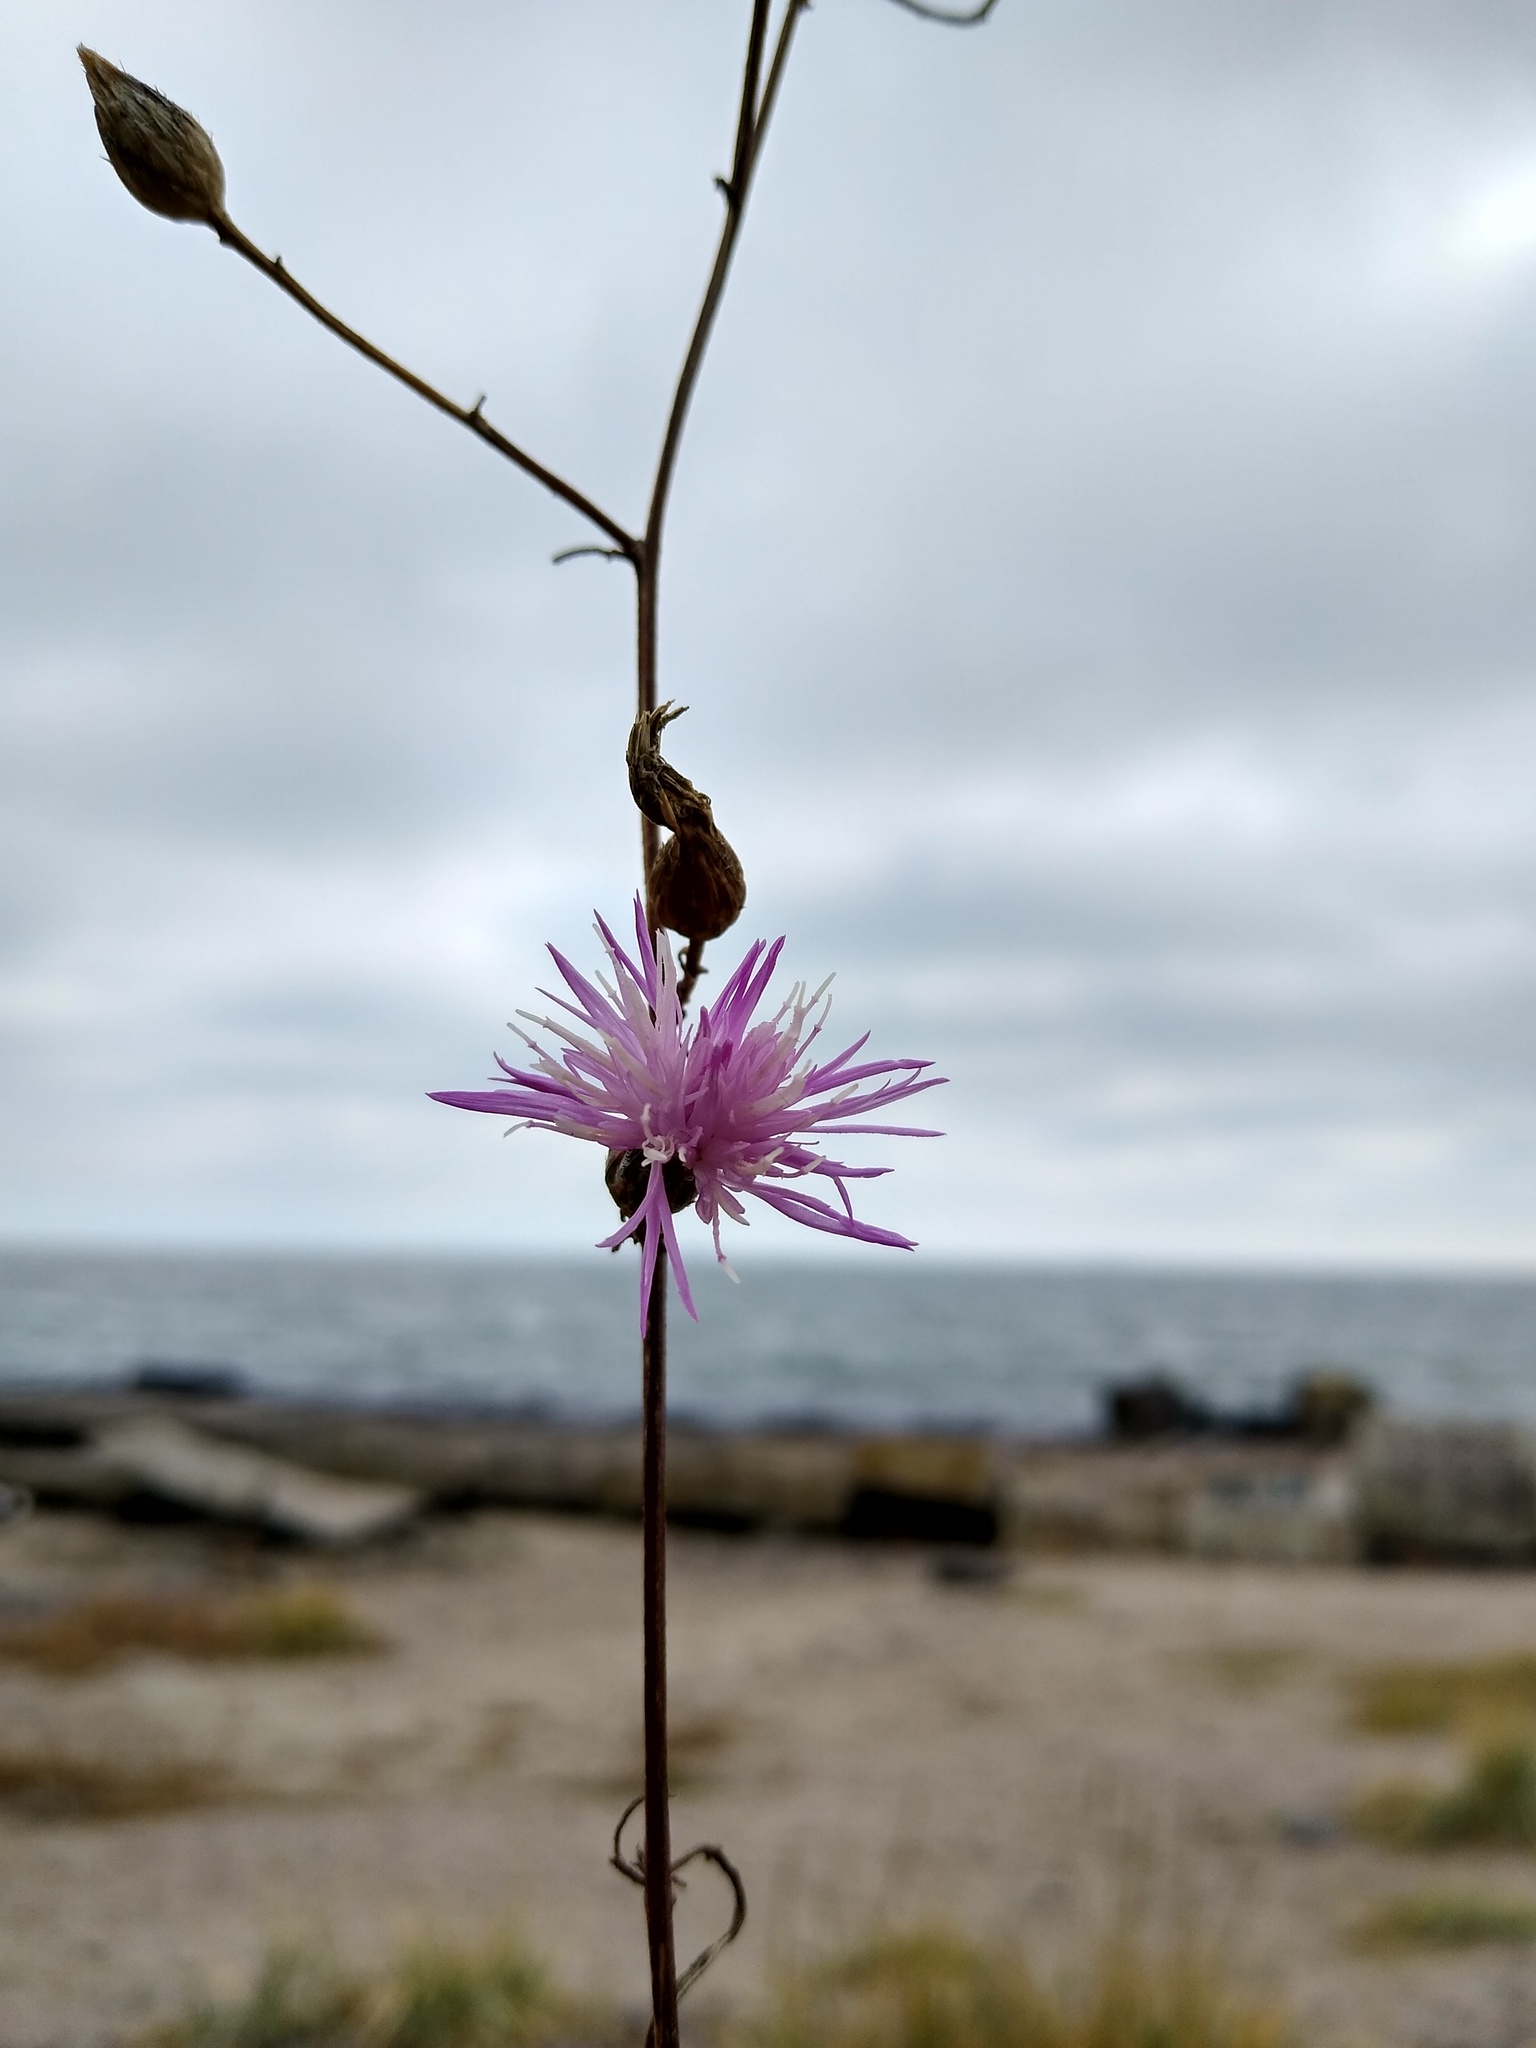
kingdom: Plantae
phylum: Tracheophyta
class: Magnoliopsida
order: Asterales
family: Asteraceae
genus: Centaurea
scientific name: Centaurea odessana
